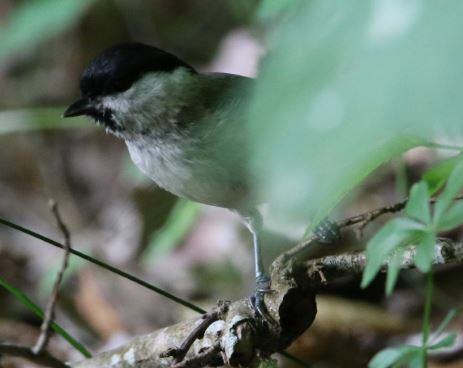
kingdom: Animalia
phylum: Chordata
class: Aves
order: Passeriformes
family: Paridae
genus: Poecile
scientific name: Poecile palustris
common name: Marsh tit
